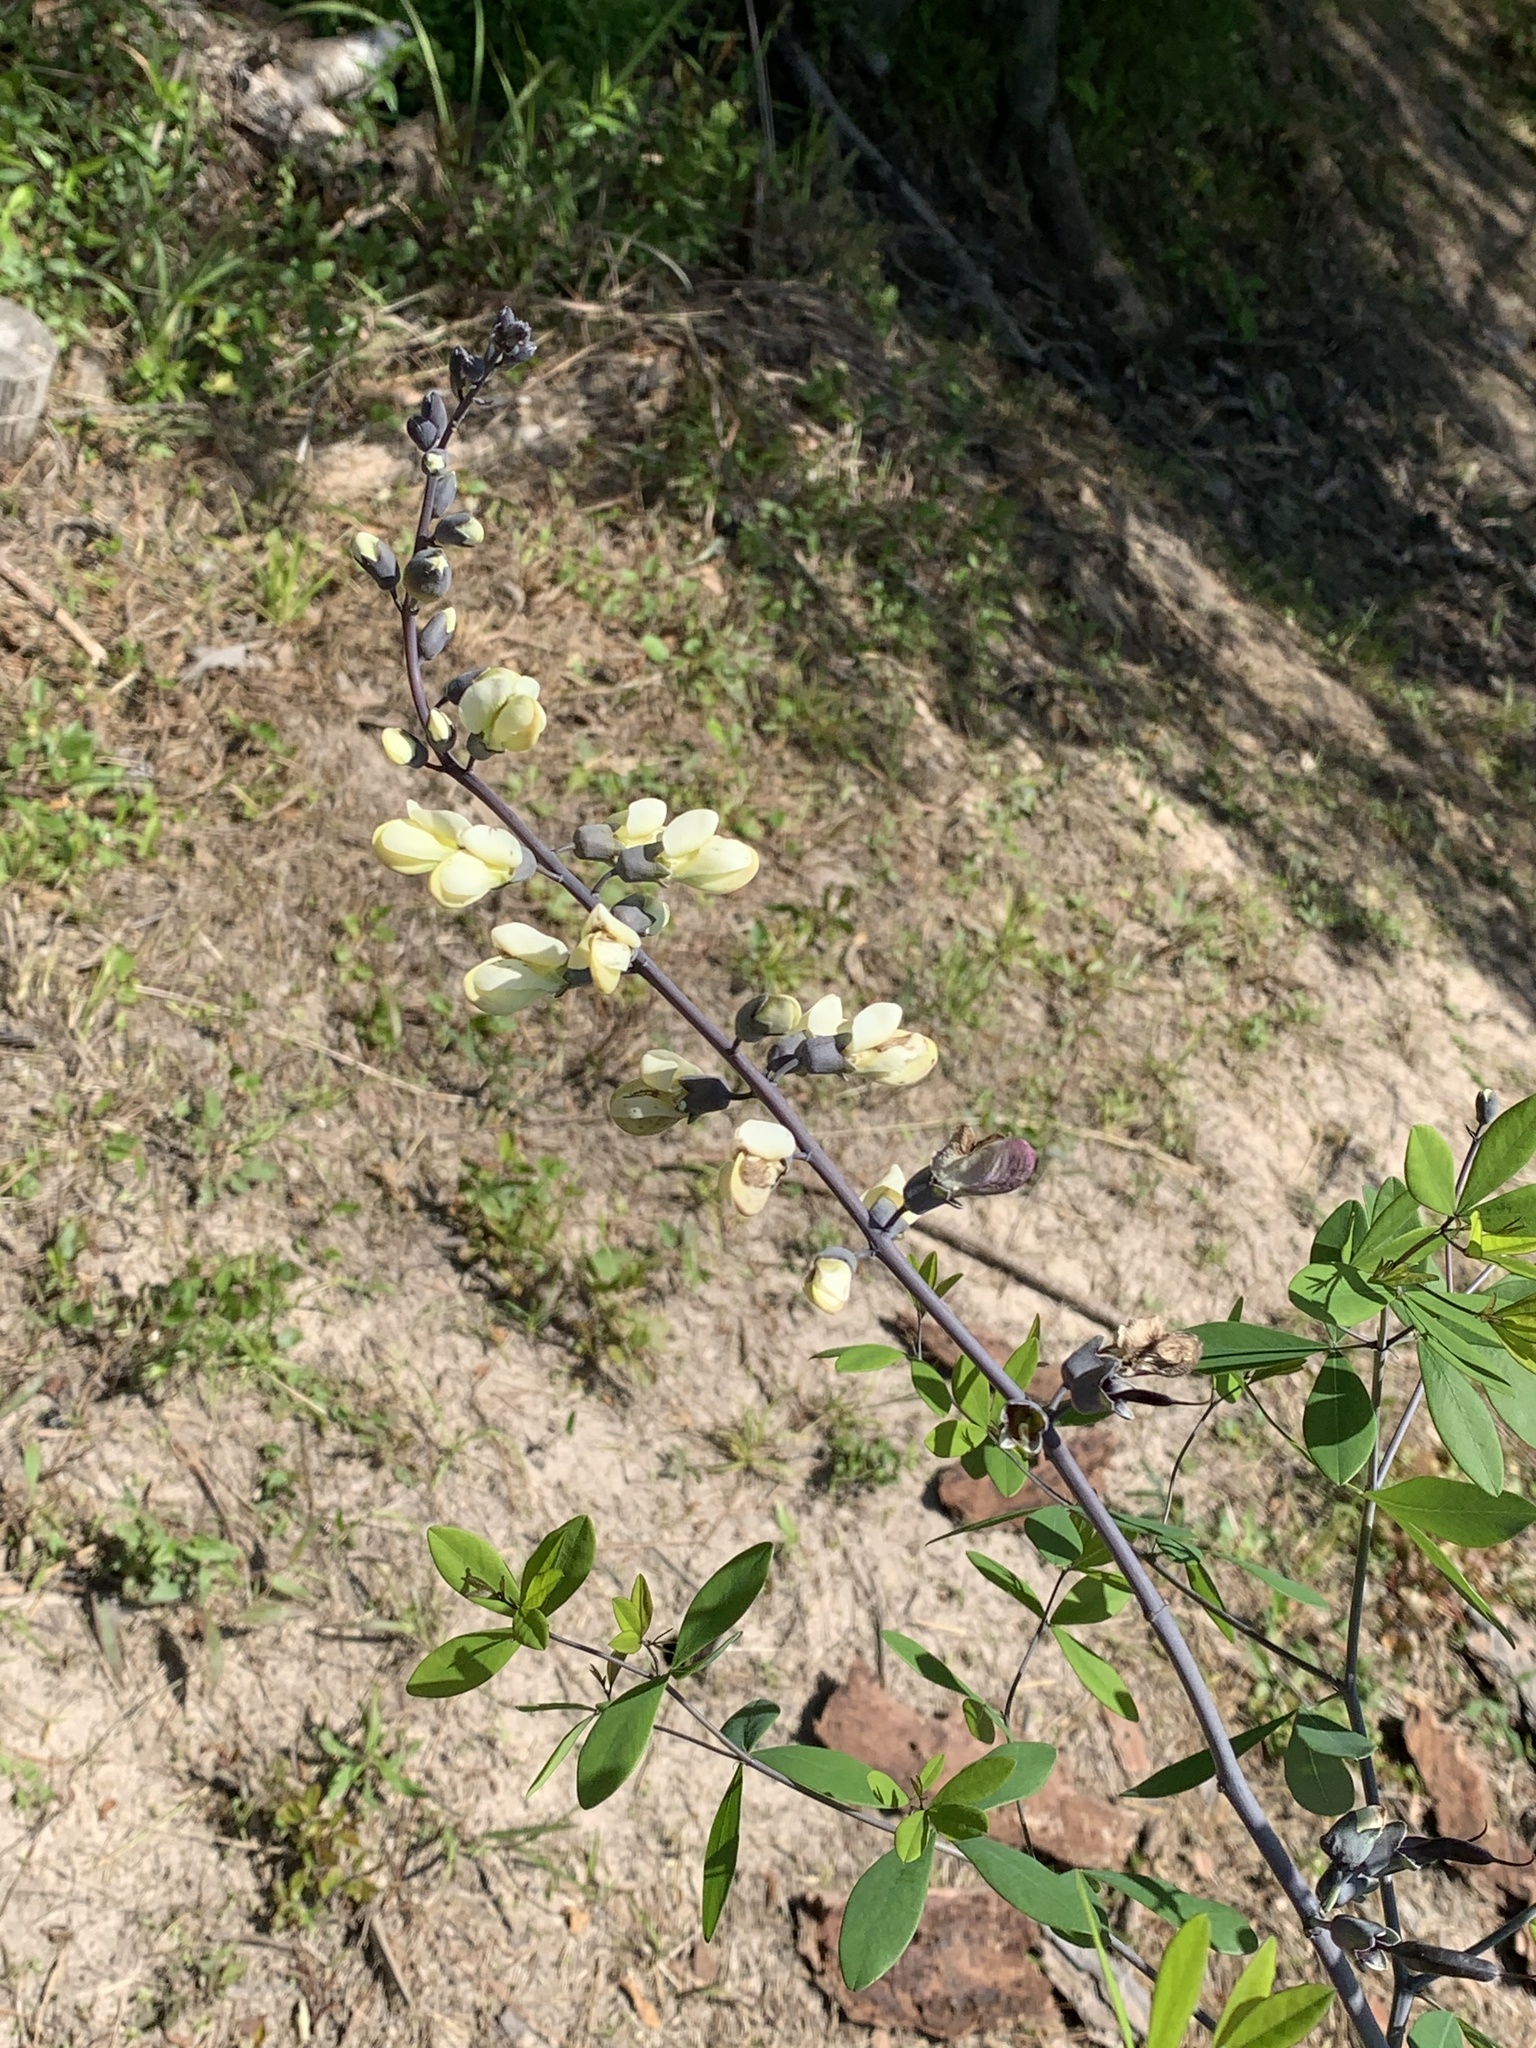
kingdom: Plantae
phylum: Tracheophyta
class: Magnoliopsida
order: Fabales
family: Fabaceae
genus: Baptisia
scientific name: Baptisia alba
